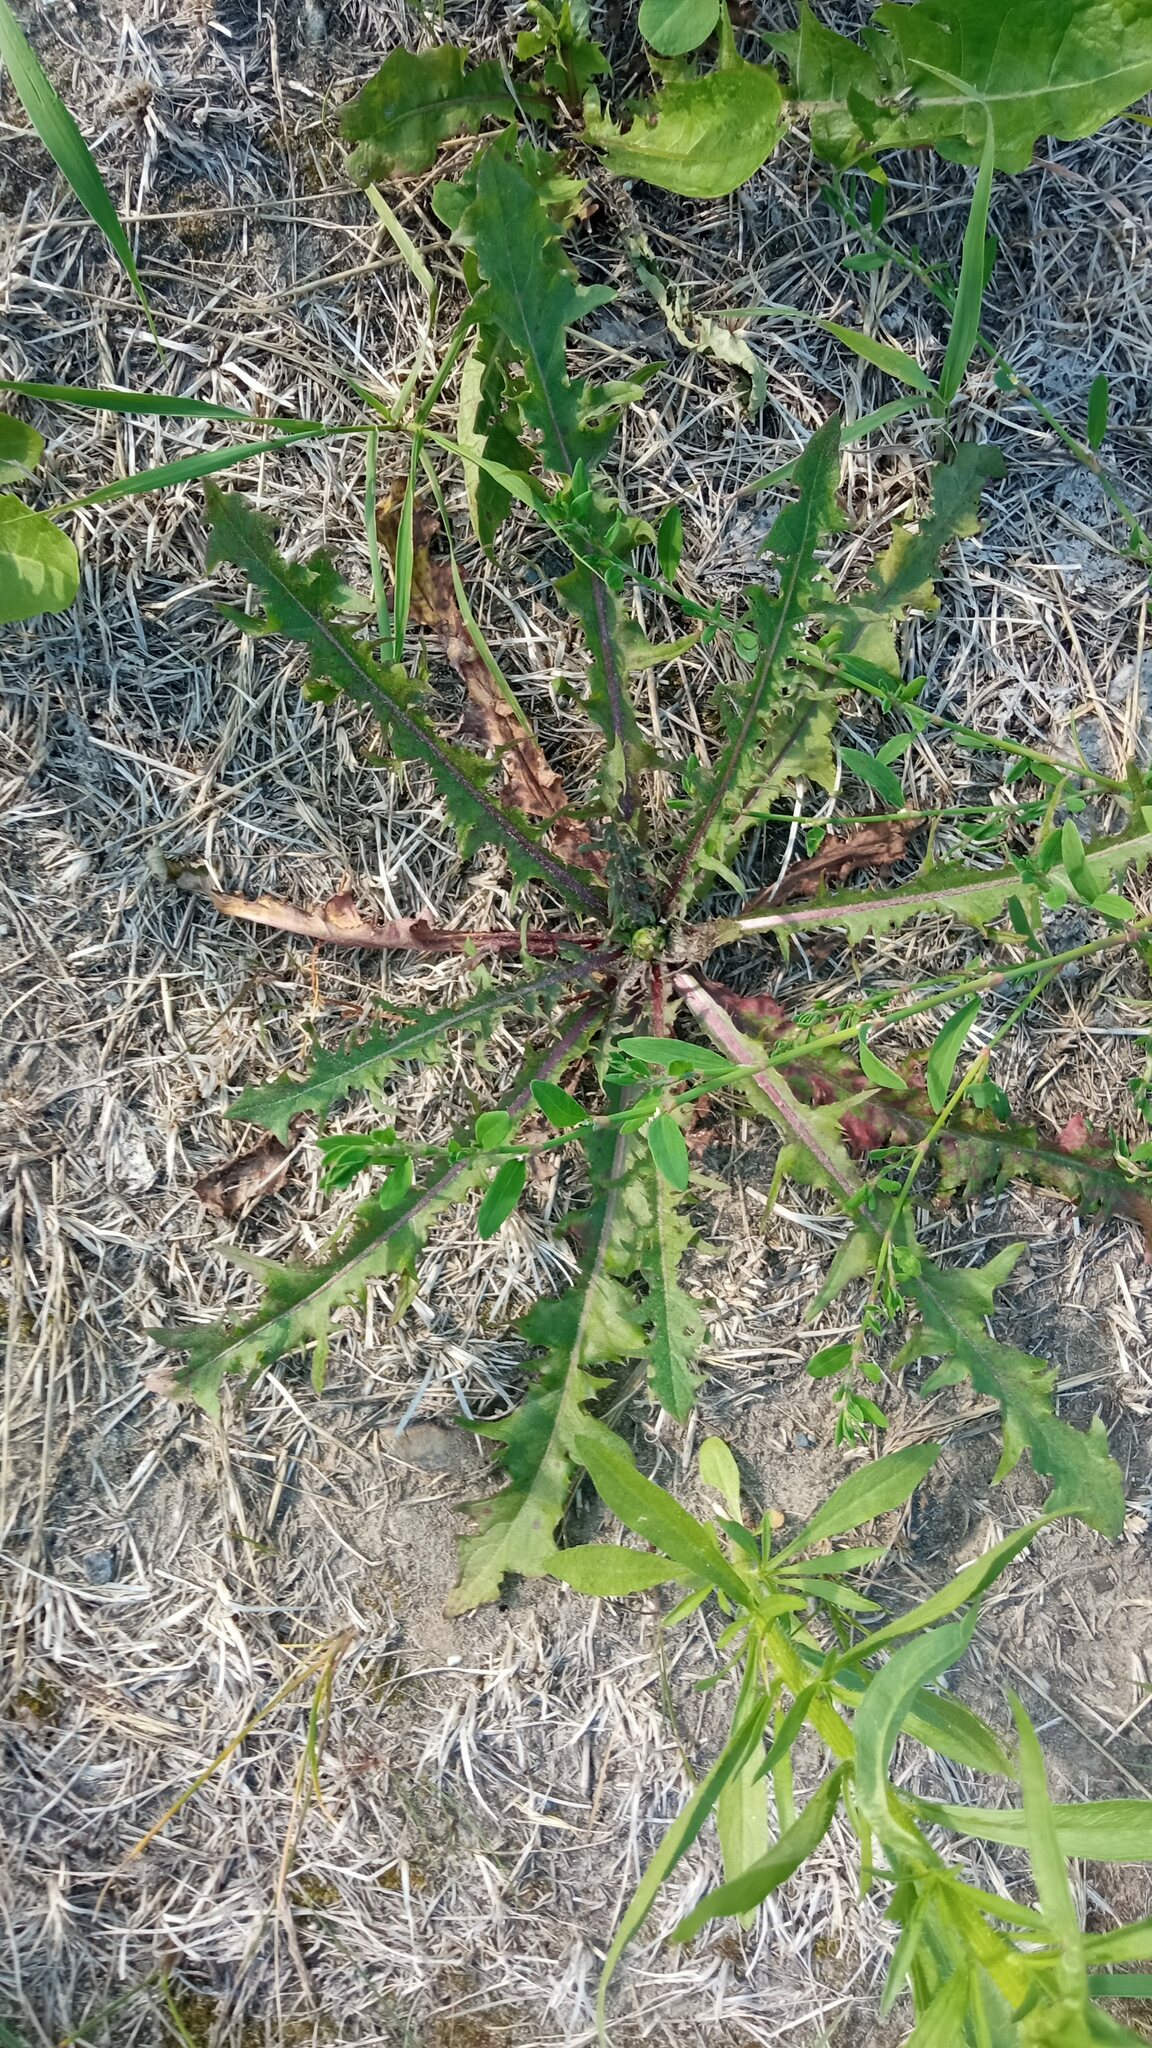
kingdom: Plantae
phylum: Tracheophyta
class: Magnoliopsida
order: Asterales
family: Asteraceae
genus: Taraxacum
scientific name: Taraxacum officinale
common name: Common dandelion
